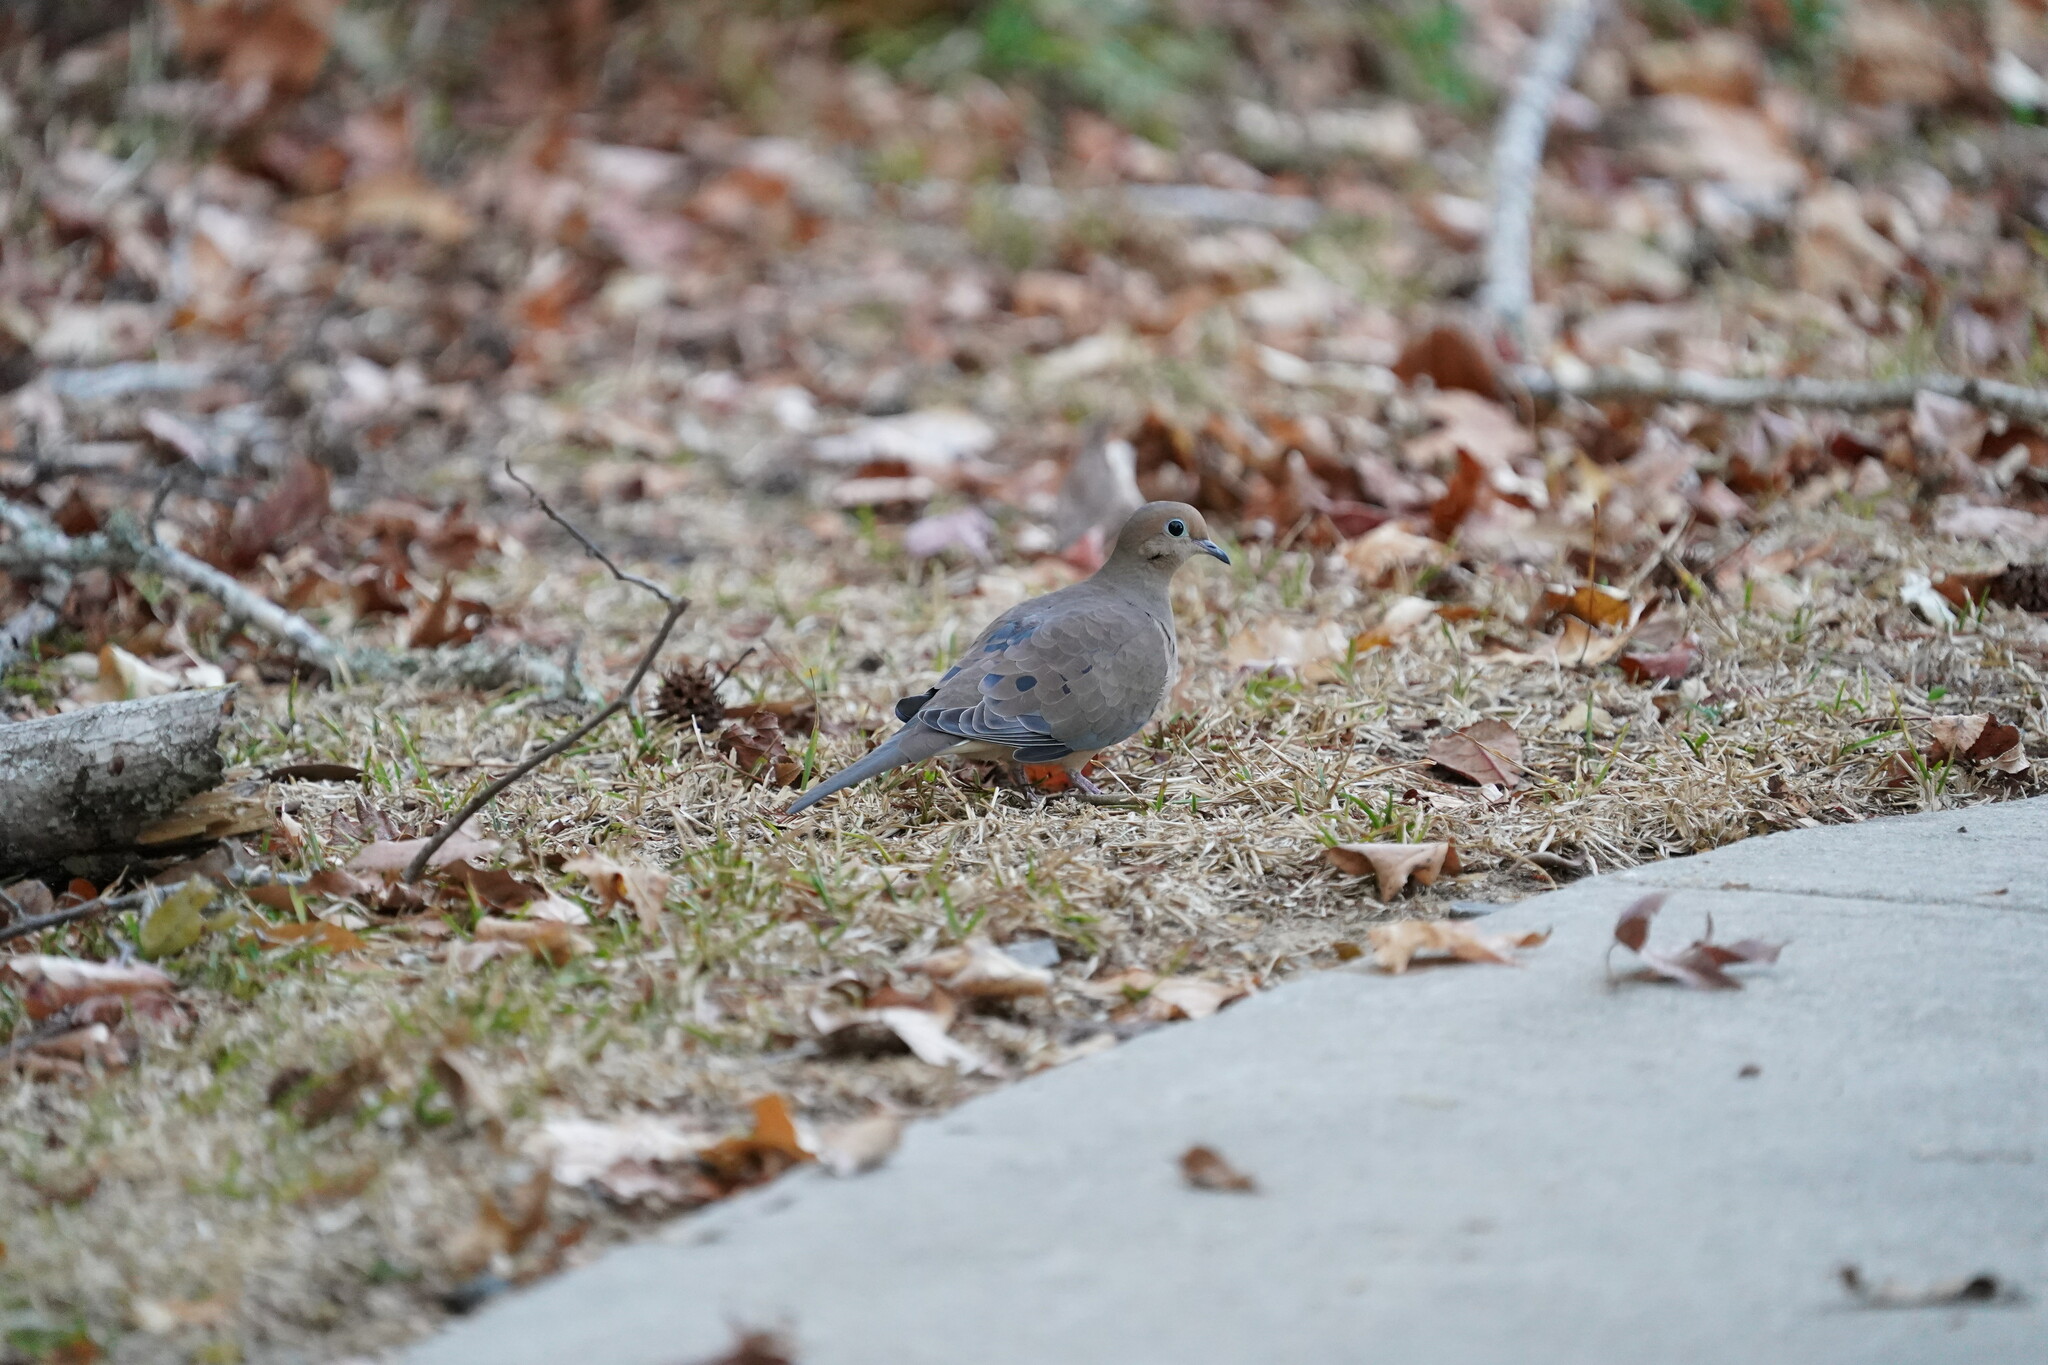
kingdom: Animalia
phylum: Chordata
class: Aves
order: Columbiformes
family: Columbidae
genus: Zenaida
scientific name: Zenaida macroura
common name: Mourning dove
